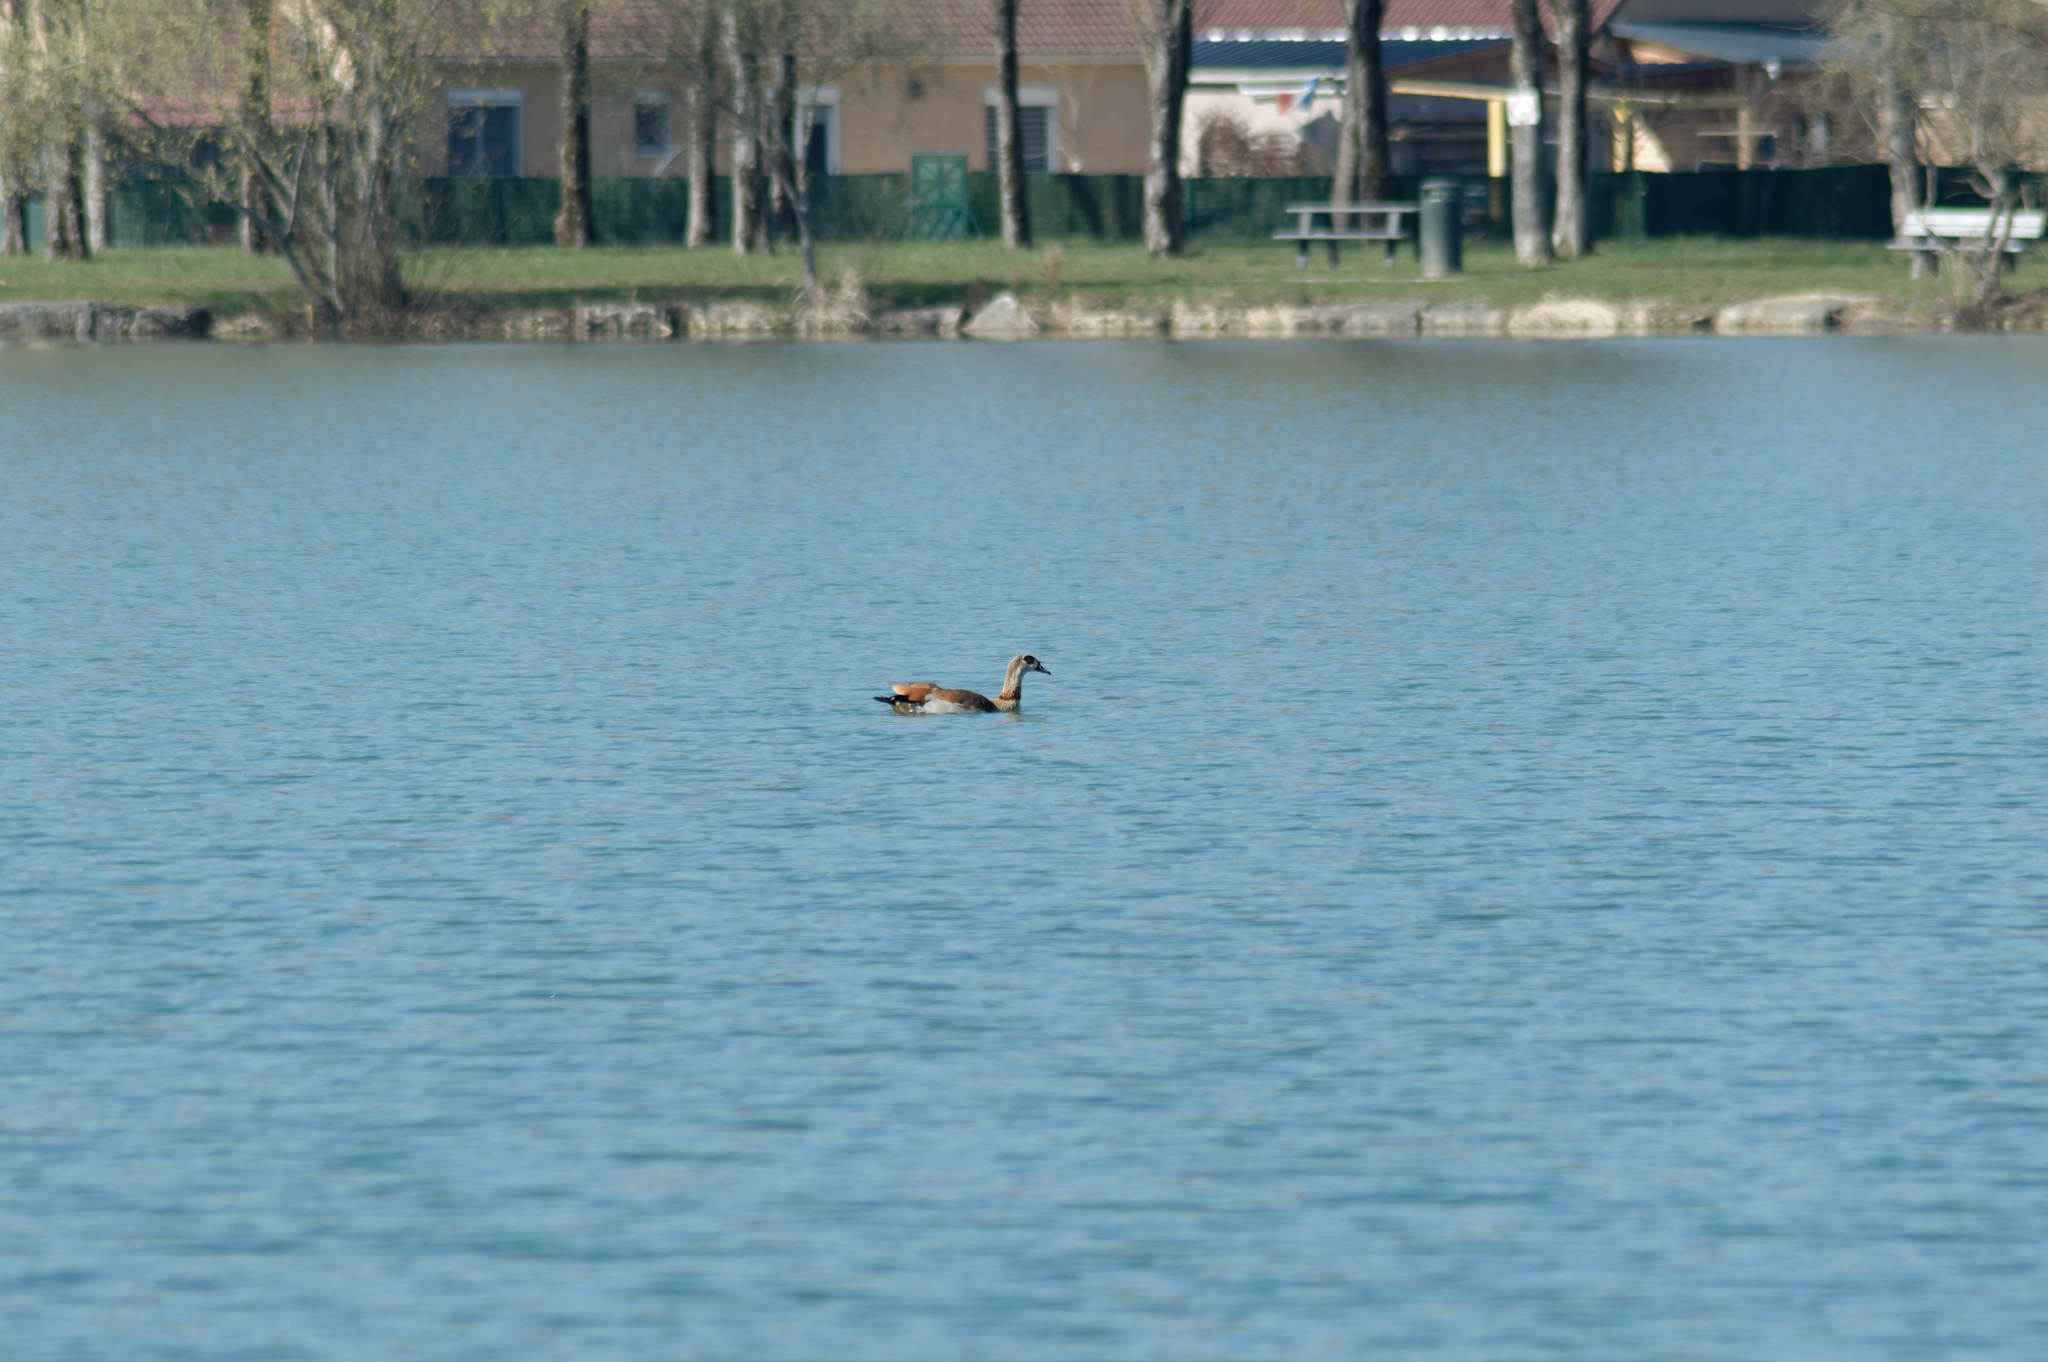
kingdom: Animalia
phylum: Chordata
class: Aves
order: Anseriformes
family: Anatidae
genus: Alopochen
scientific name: Alopochen aegyptiaca
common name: Egyptian goose
